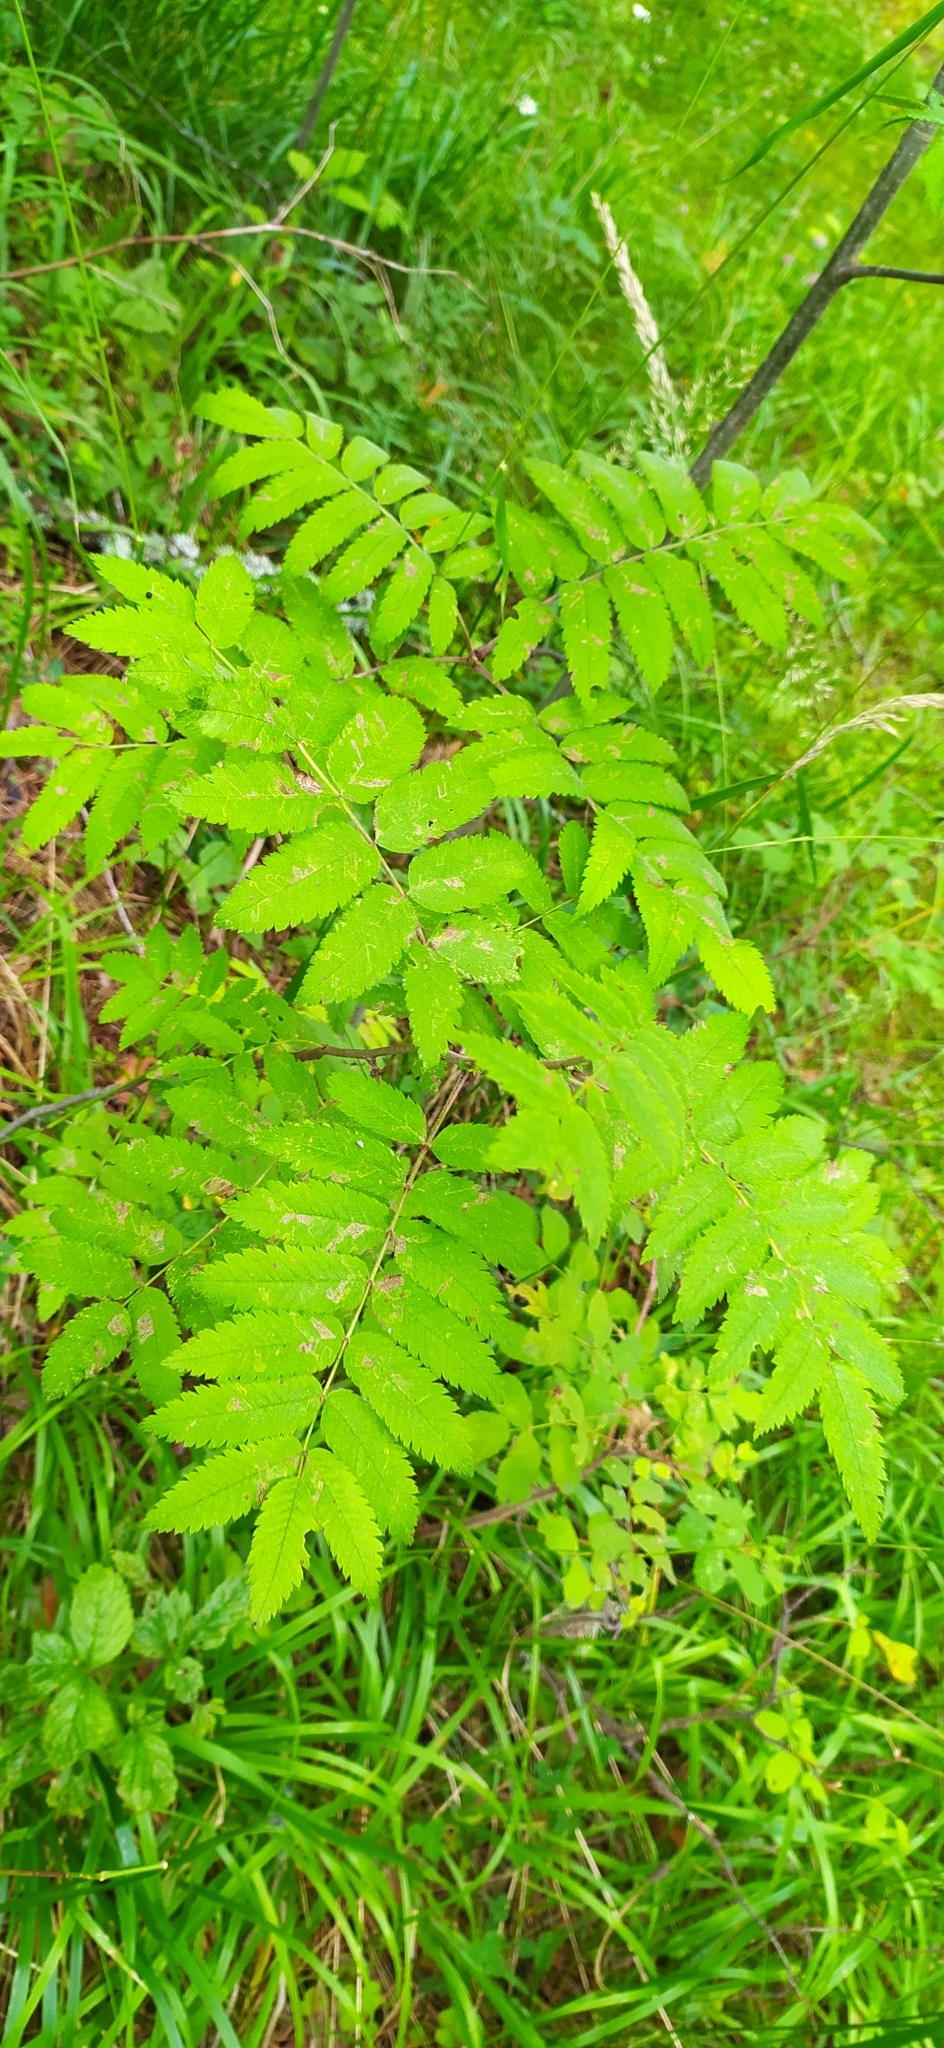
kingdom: Plantae
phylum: Tracheophyta
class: Magnoliopsida
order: Rosales
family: Rosaceae
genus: Sorbus
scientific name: Sorbus aucuparia
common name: Rowan
